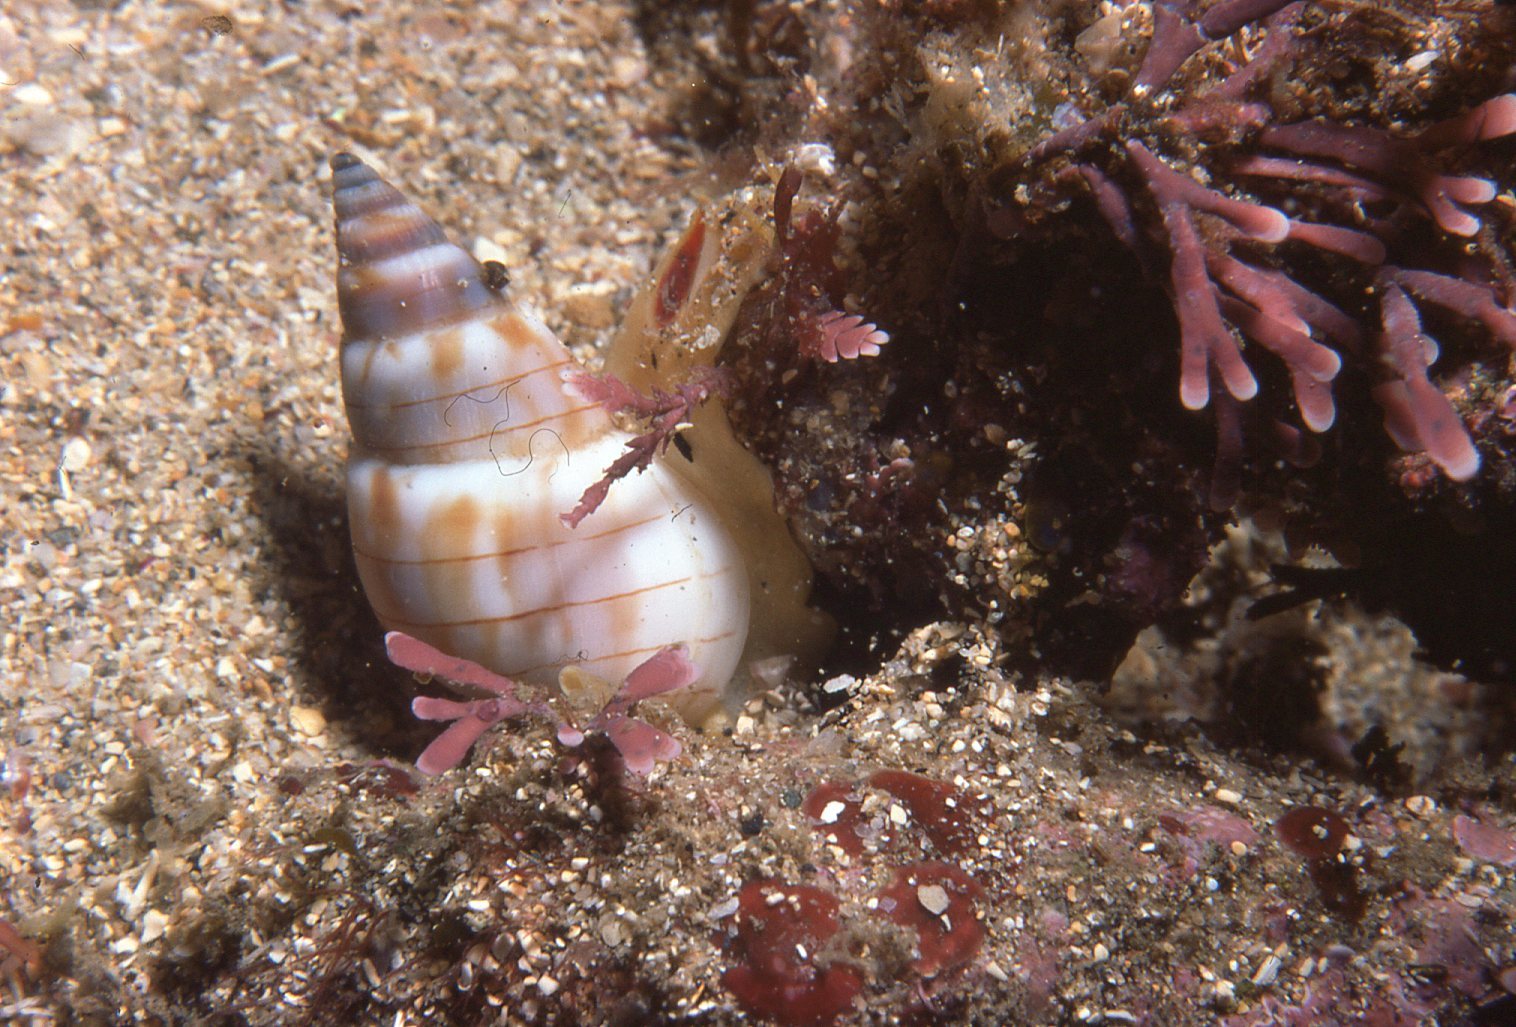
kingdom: Animalia
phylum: Mollusca
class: Gastropoda
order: Neogastropoda
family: Nassariidae
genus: Nassarius
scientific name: Nassarius particeps
